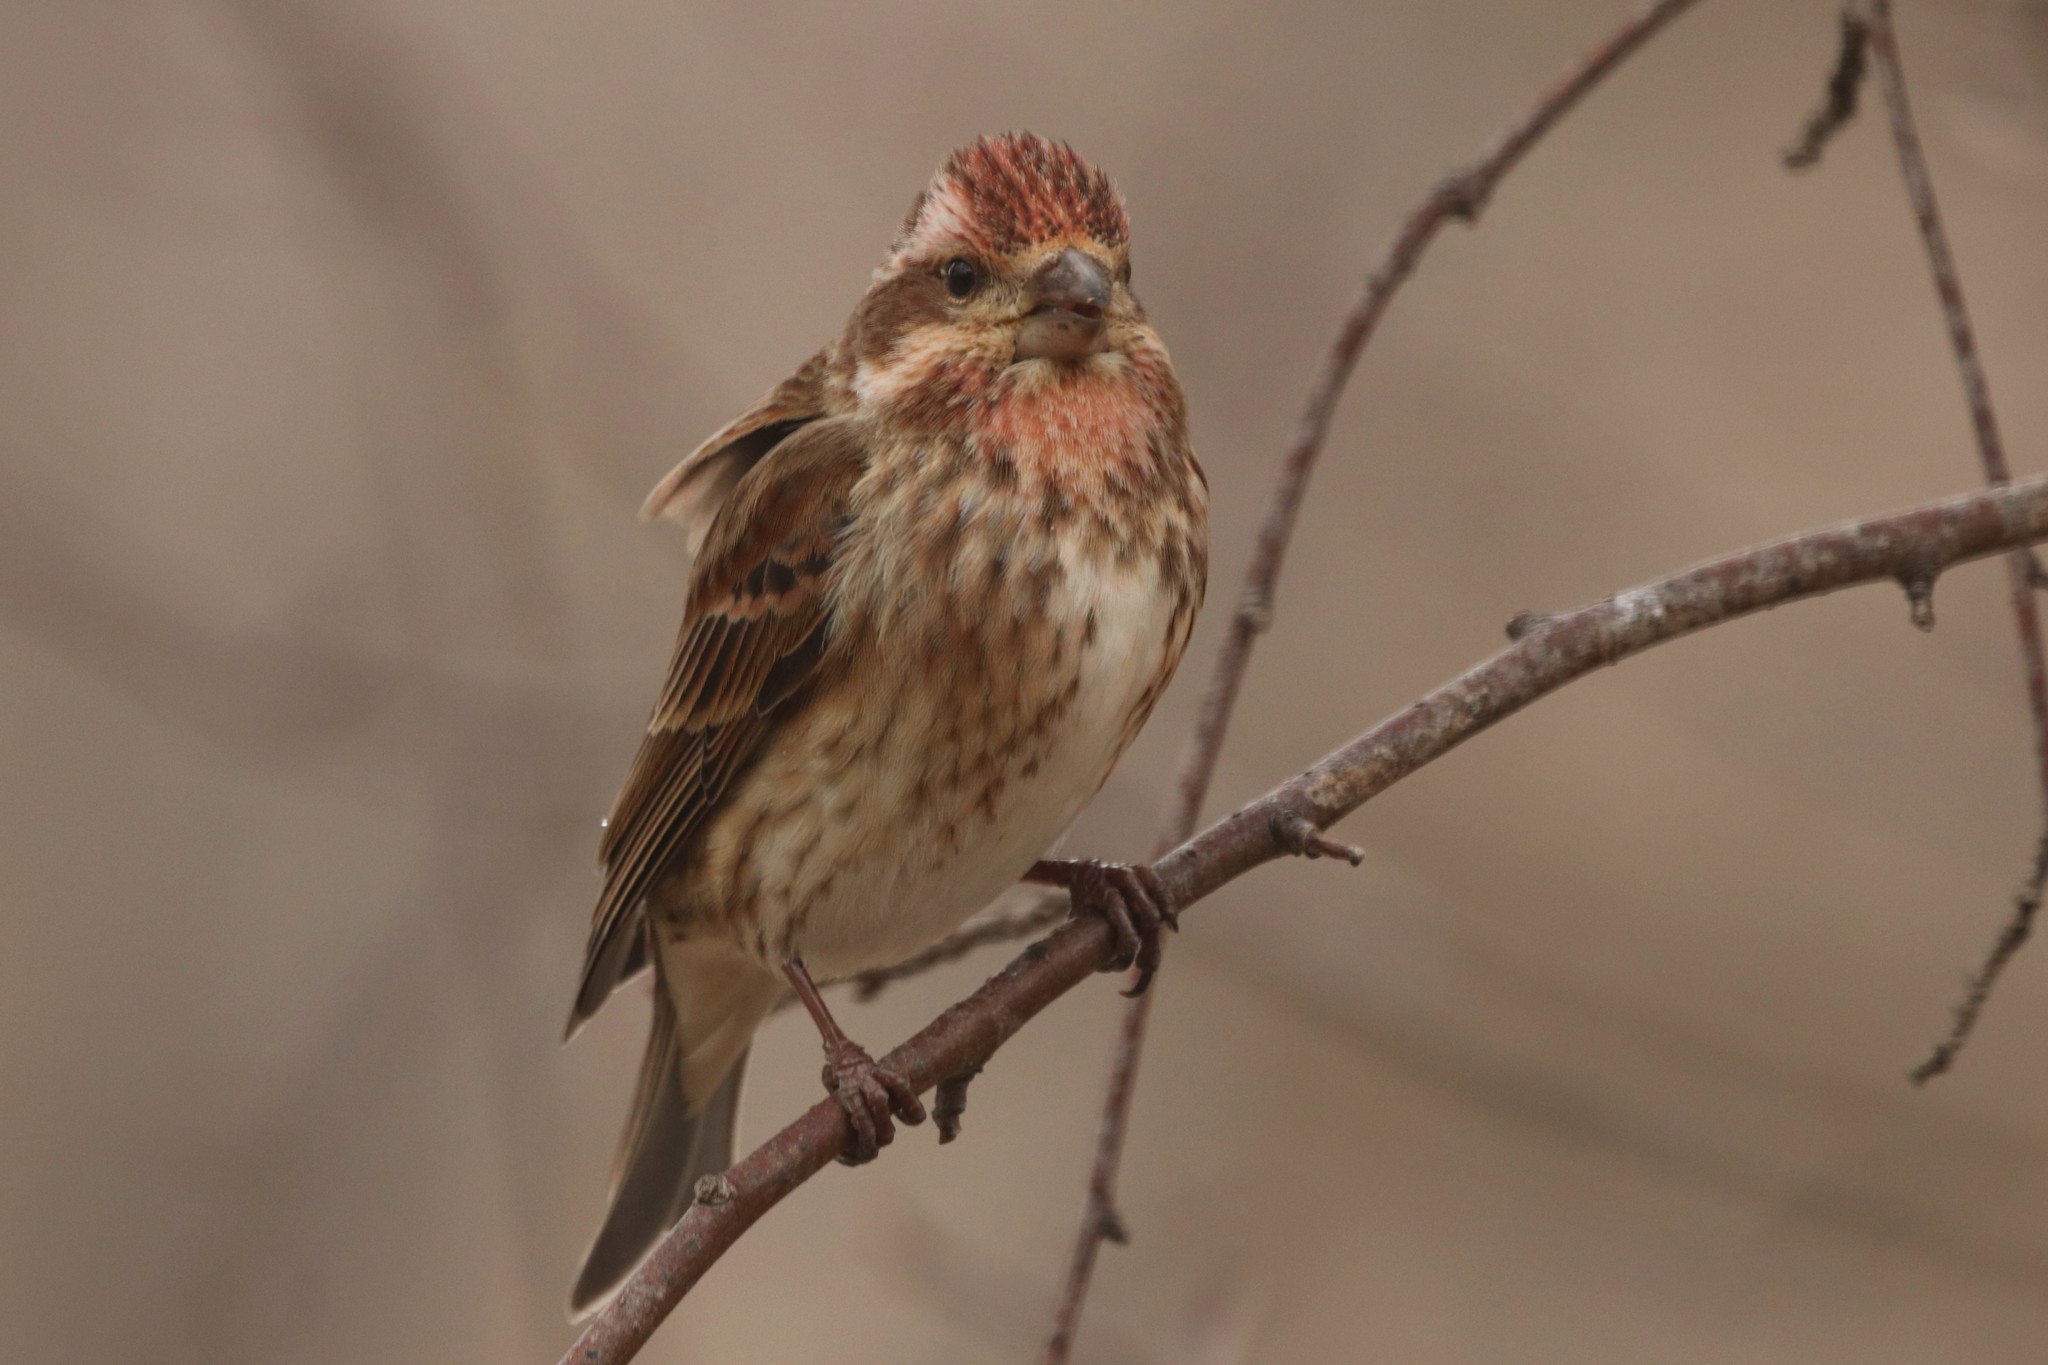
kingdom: Animalia
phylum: Chordata
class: Aves
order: Passeriformes
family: Fringillidae
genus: Haemorhous
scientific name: Haemorhous purpureus
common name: Purple finch
